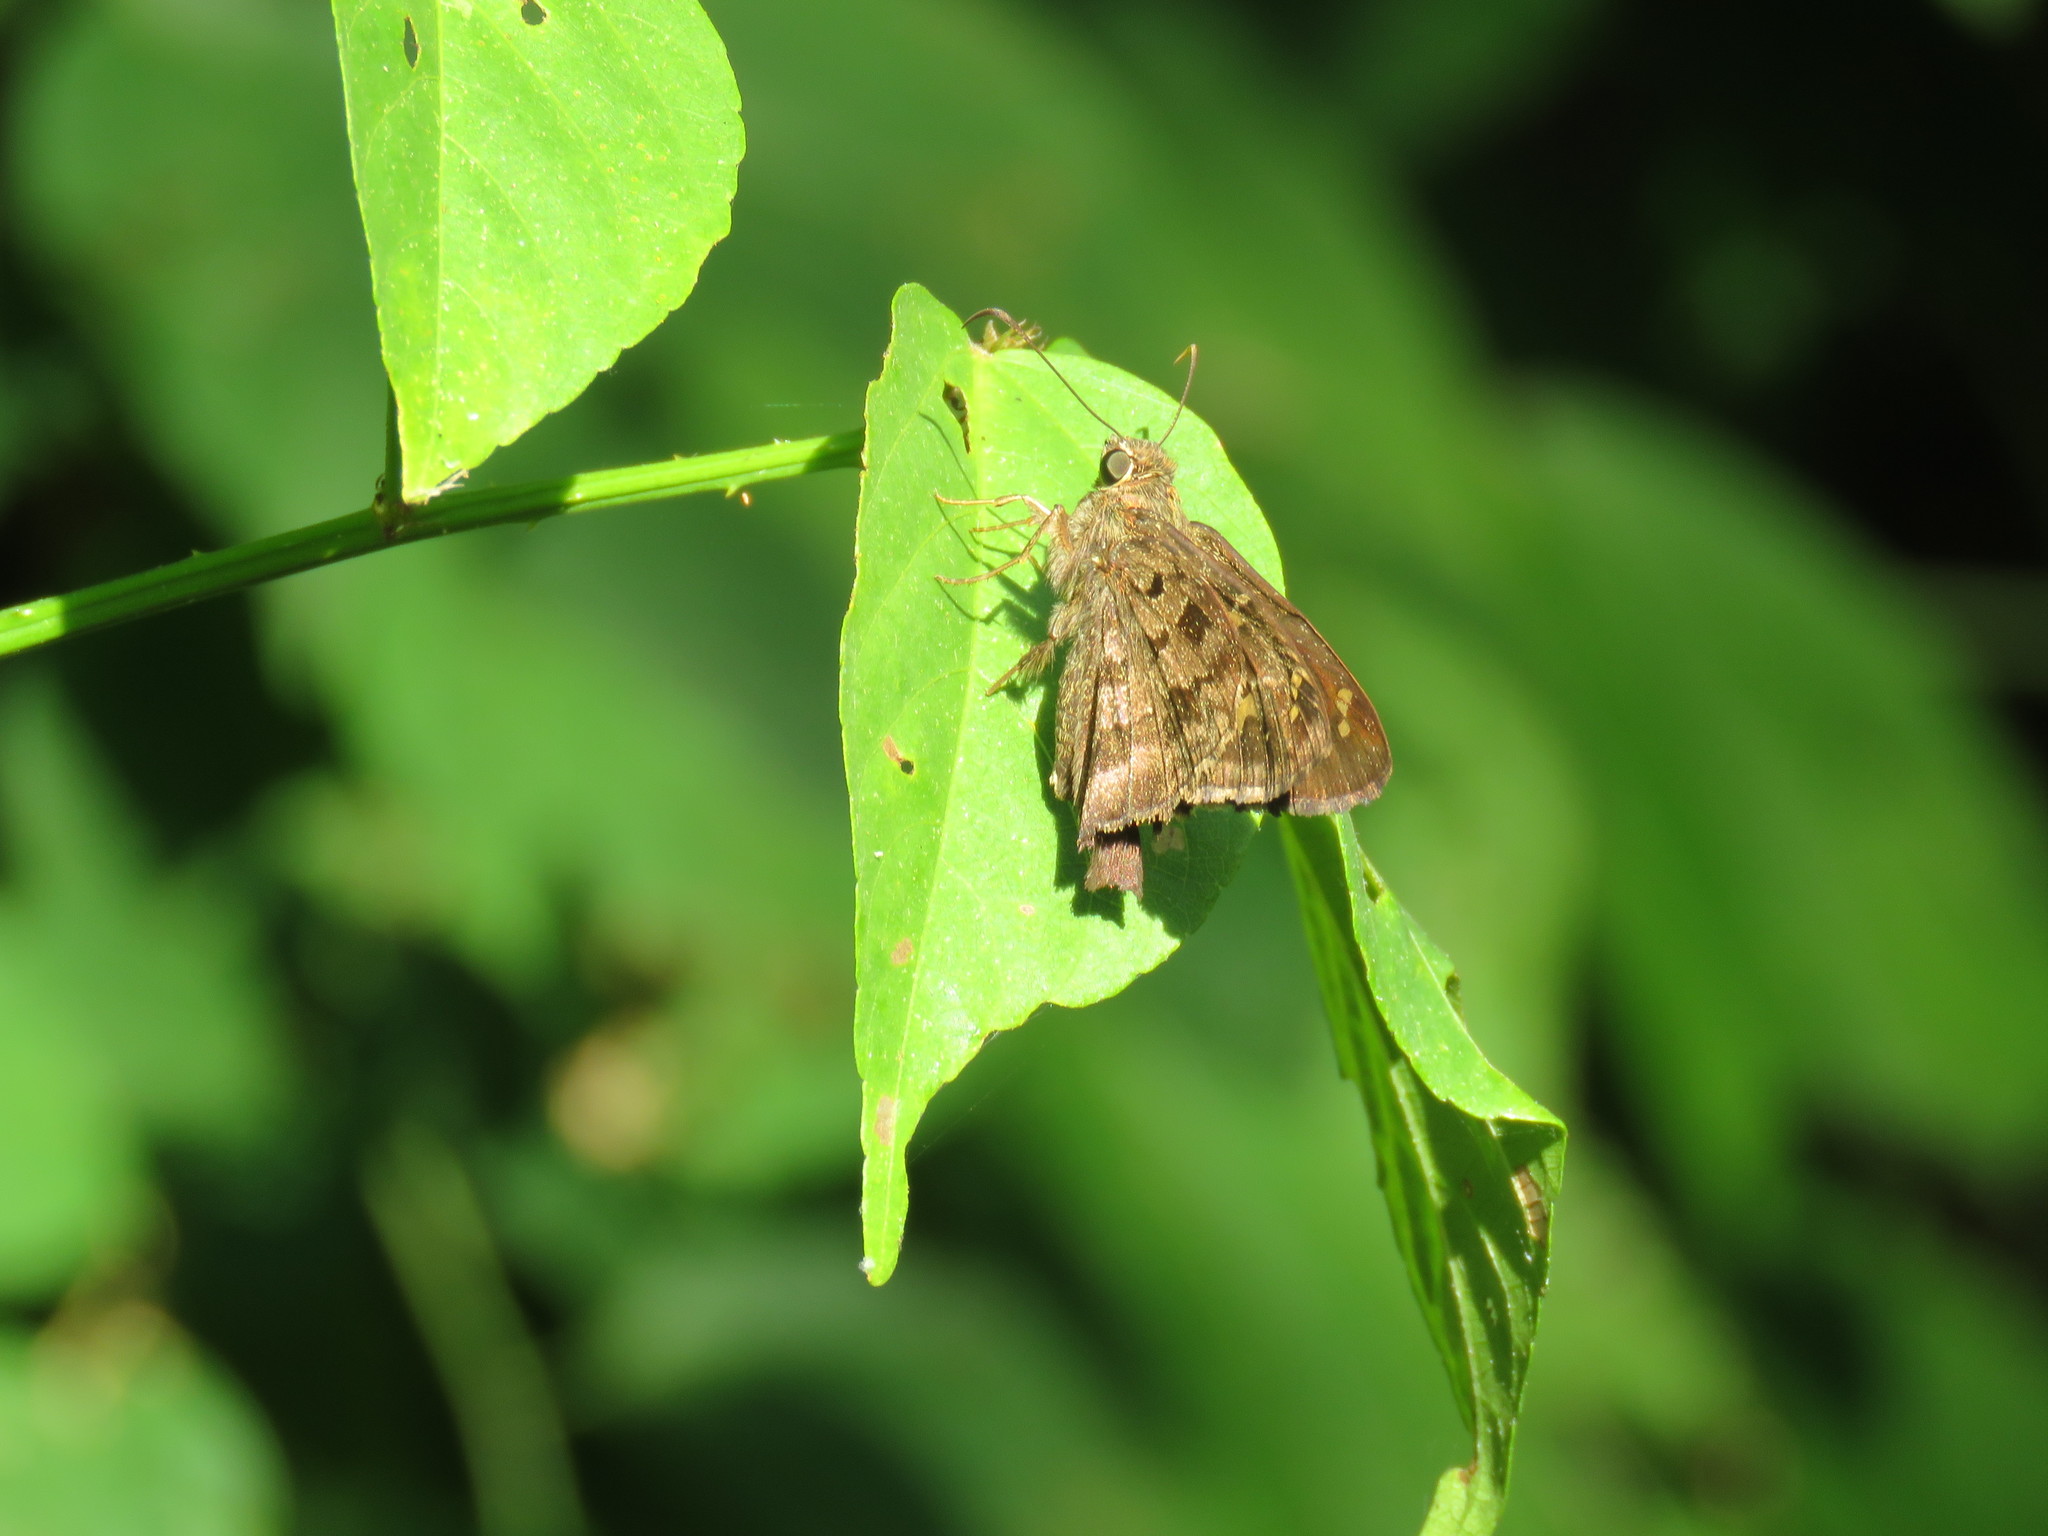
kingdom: Animalia
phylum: Arthropoda
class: Insecta
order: Lepidoptera
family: Hesperiidae
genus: Thorybes
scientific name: Thorybes
